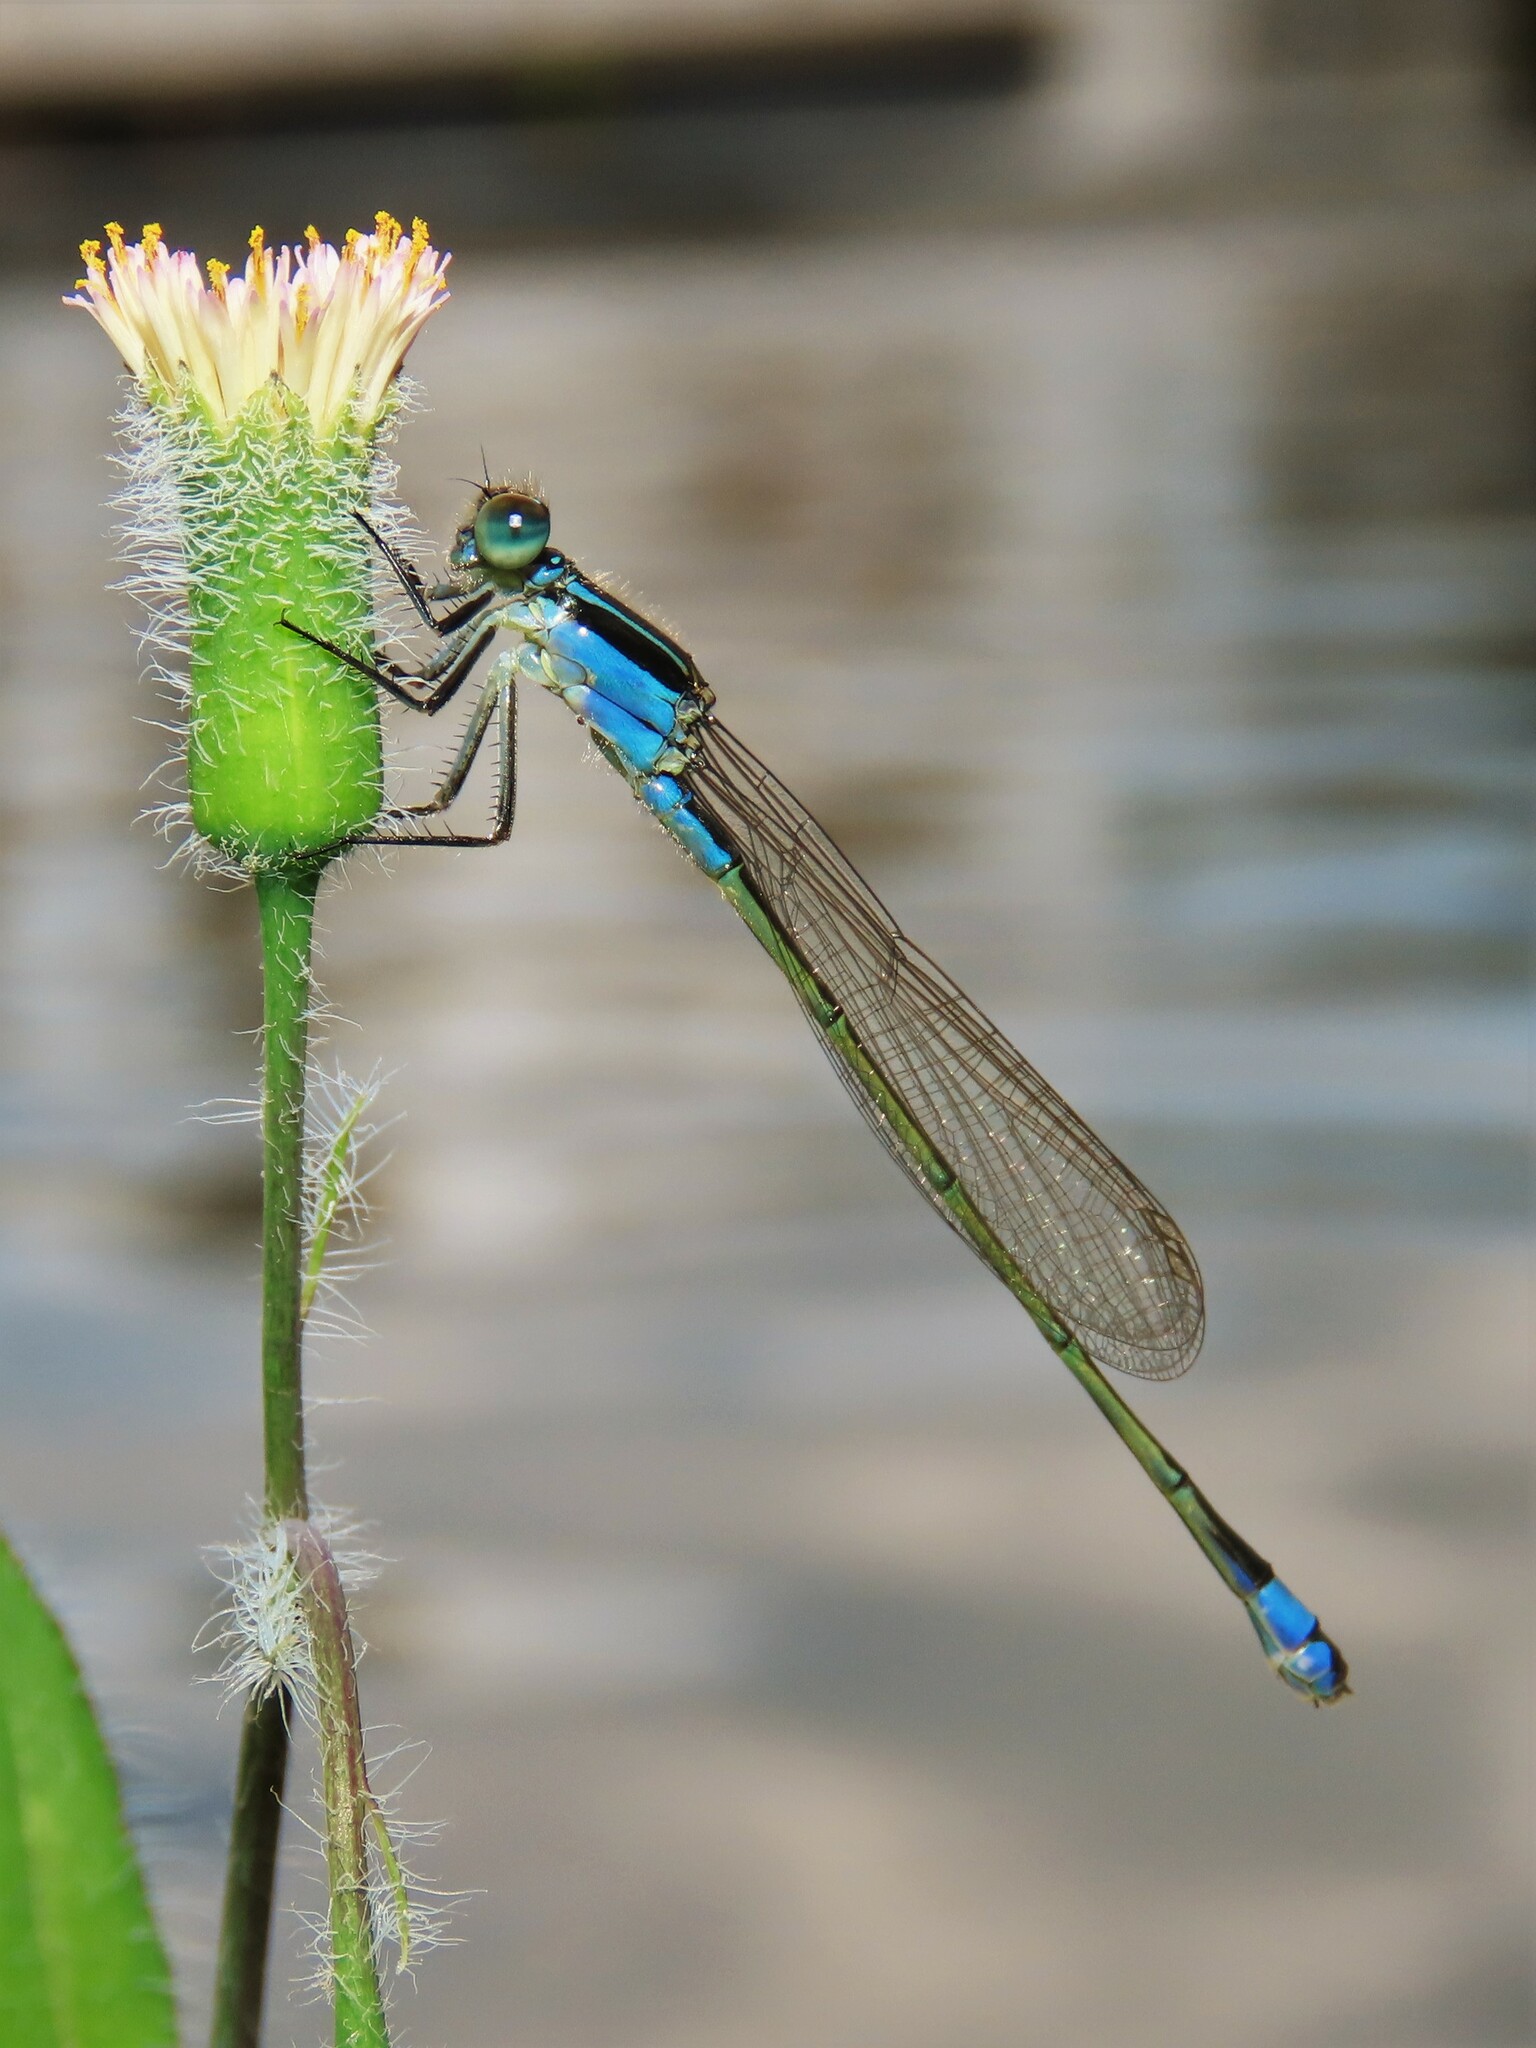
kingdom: Animalia
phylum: Arthropoda
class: Insecta
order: Odonata
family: Coenagrionidae
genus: Ischnura
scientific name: Ischnura ramburii
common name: Rambur's forktail
